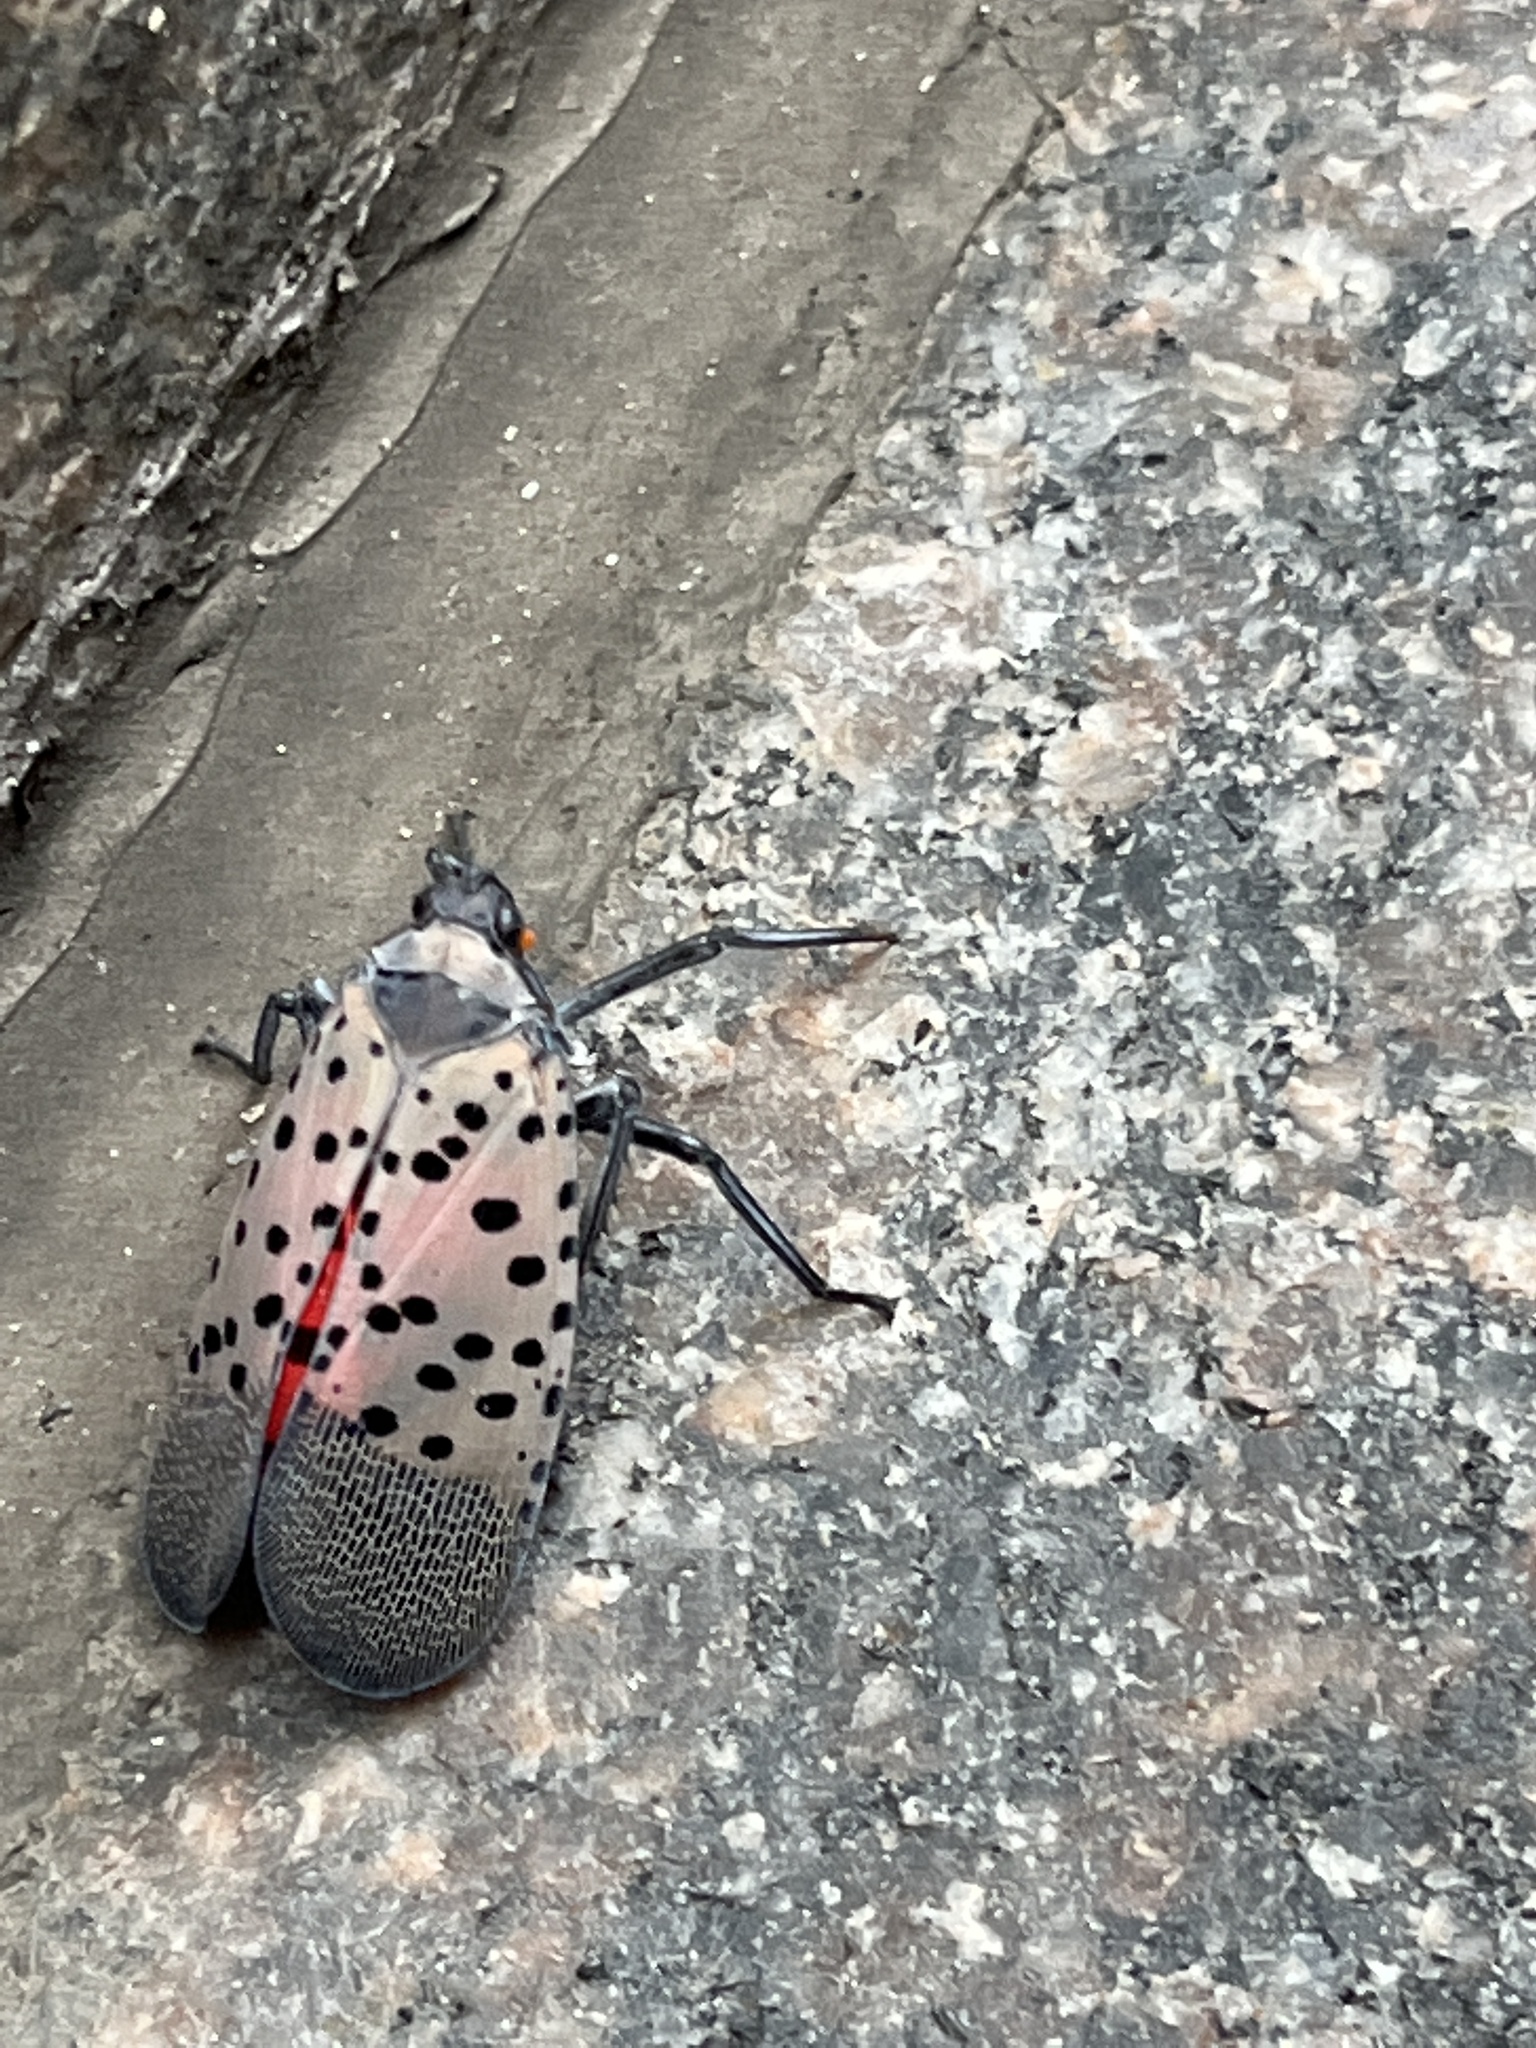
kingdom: Animalia
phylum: Arthropoda
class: Insecta
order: Hemiptera
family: Fulgoridae
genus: Lycorma
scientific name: Lycorma delicatula
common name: Spotted lanternfly
